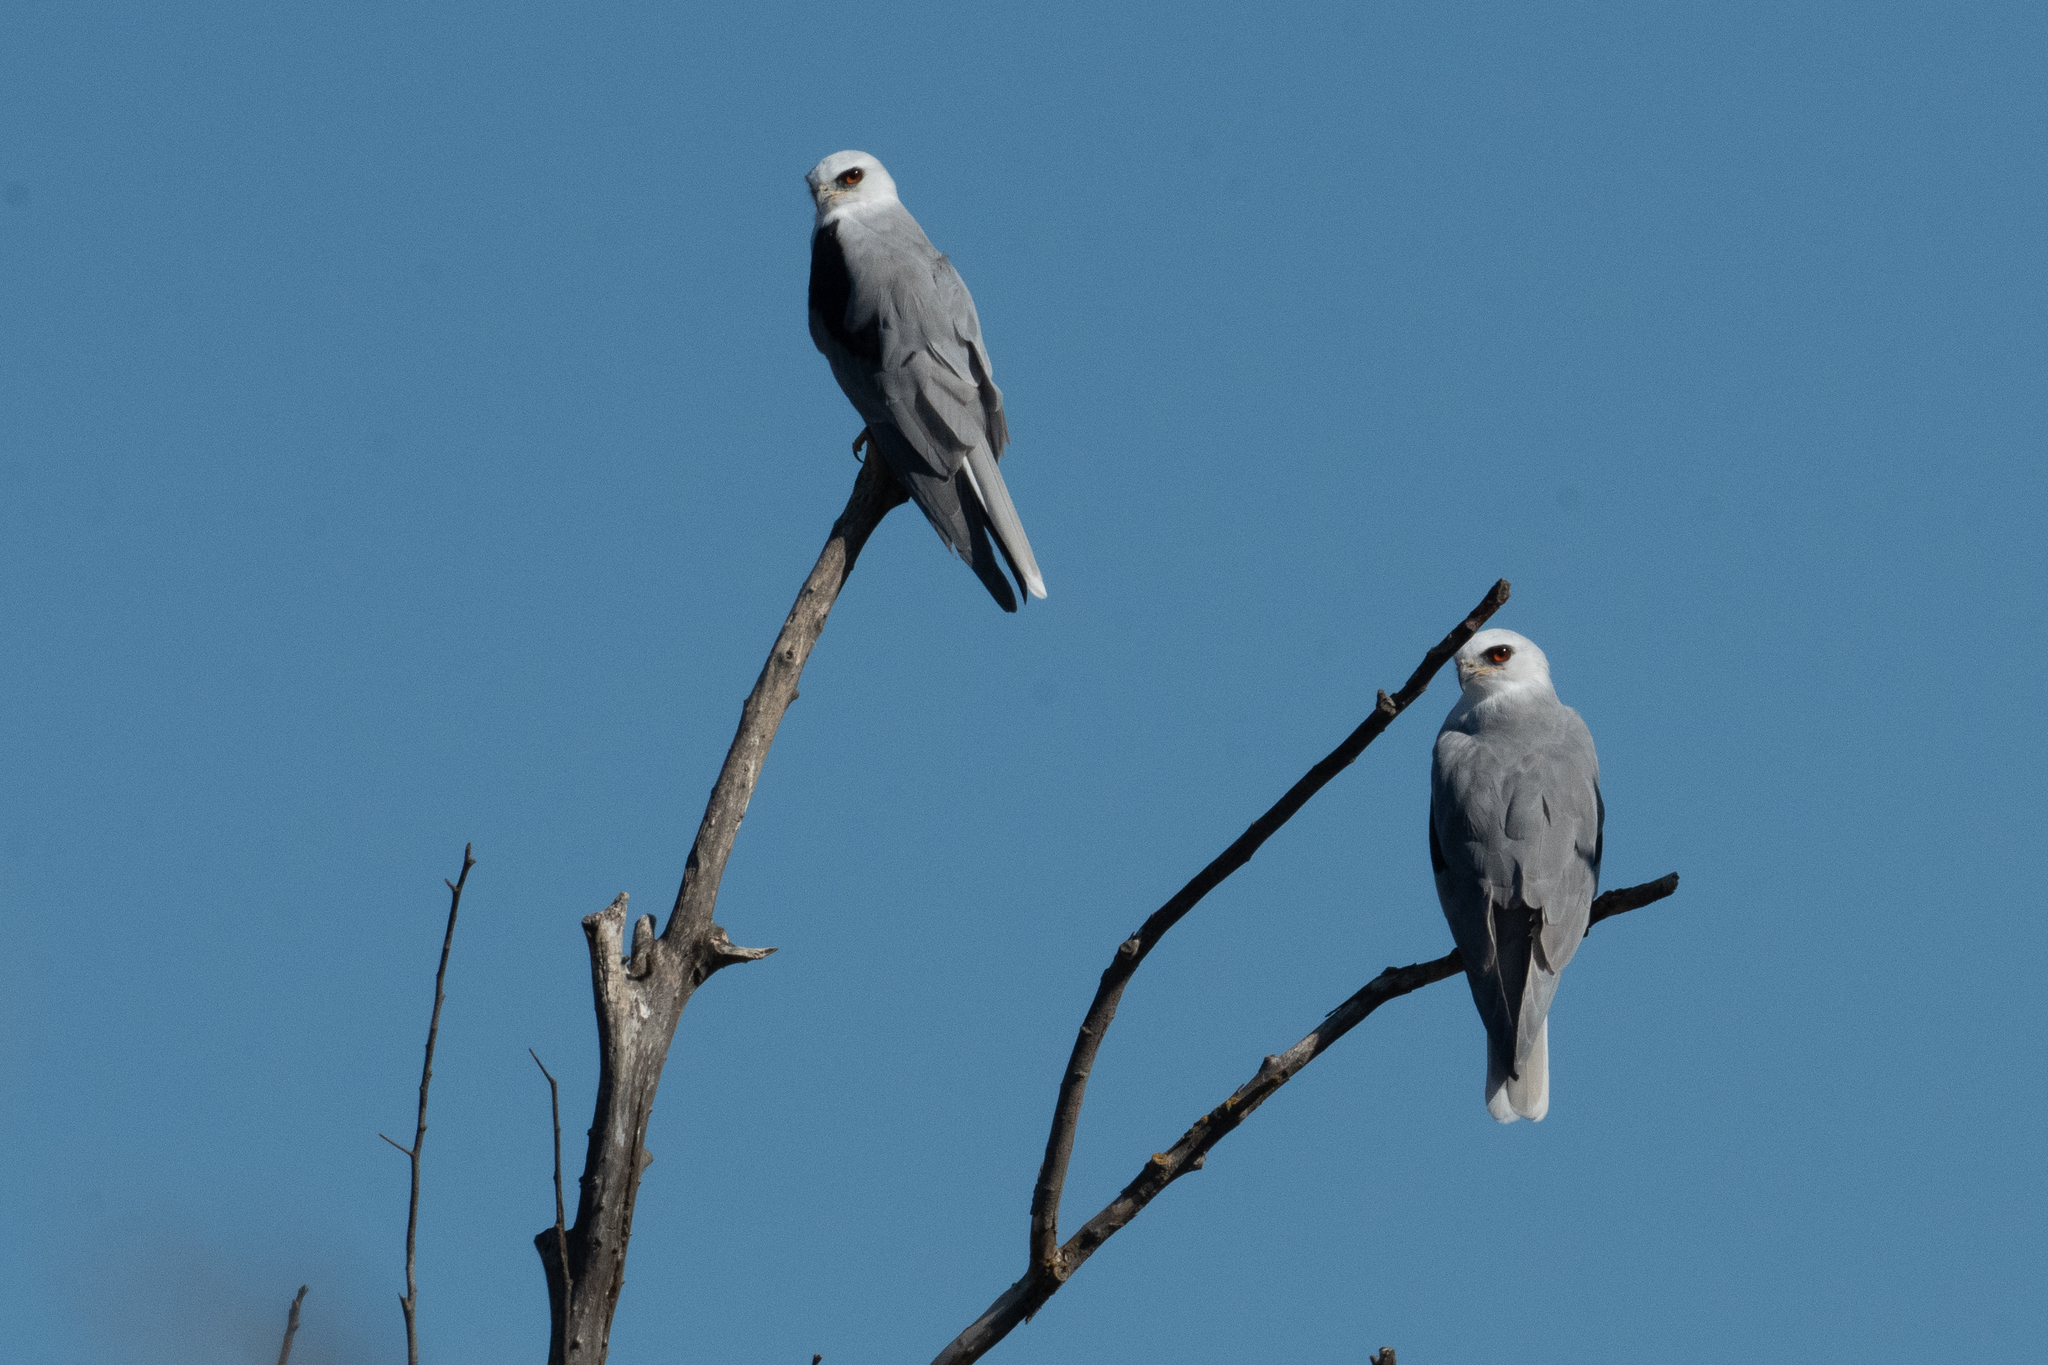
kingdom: Animalia
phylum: Chordata
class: Aves
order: Accipitriformes
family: Accipitridae
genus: Elanus
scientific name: Elanus leucurus
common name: White-tailed kite
